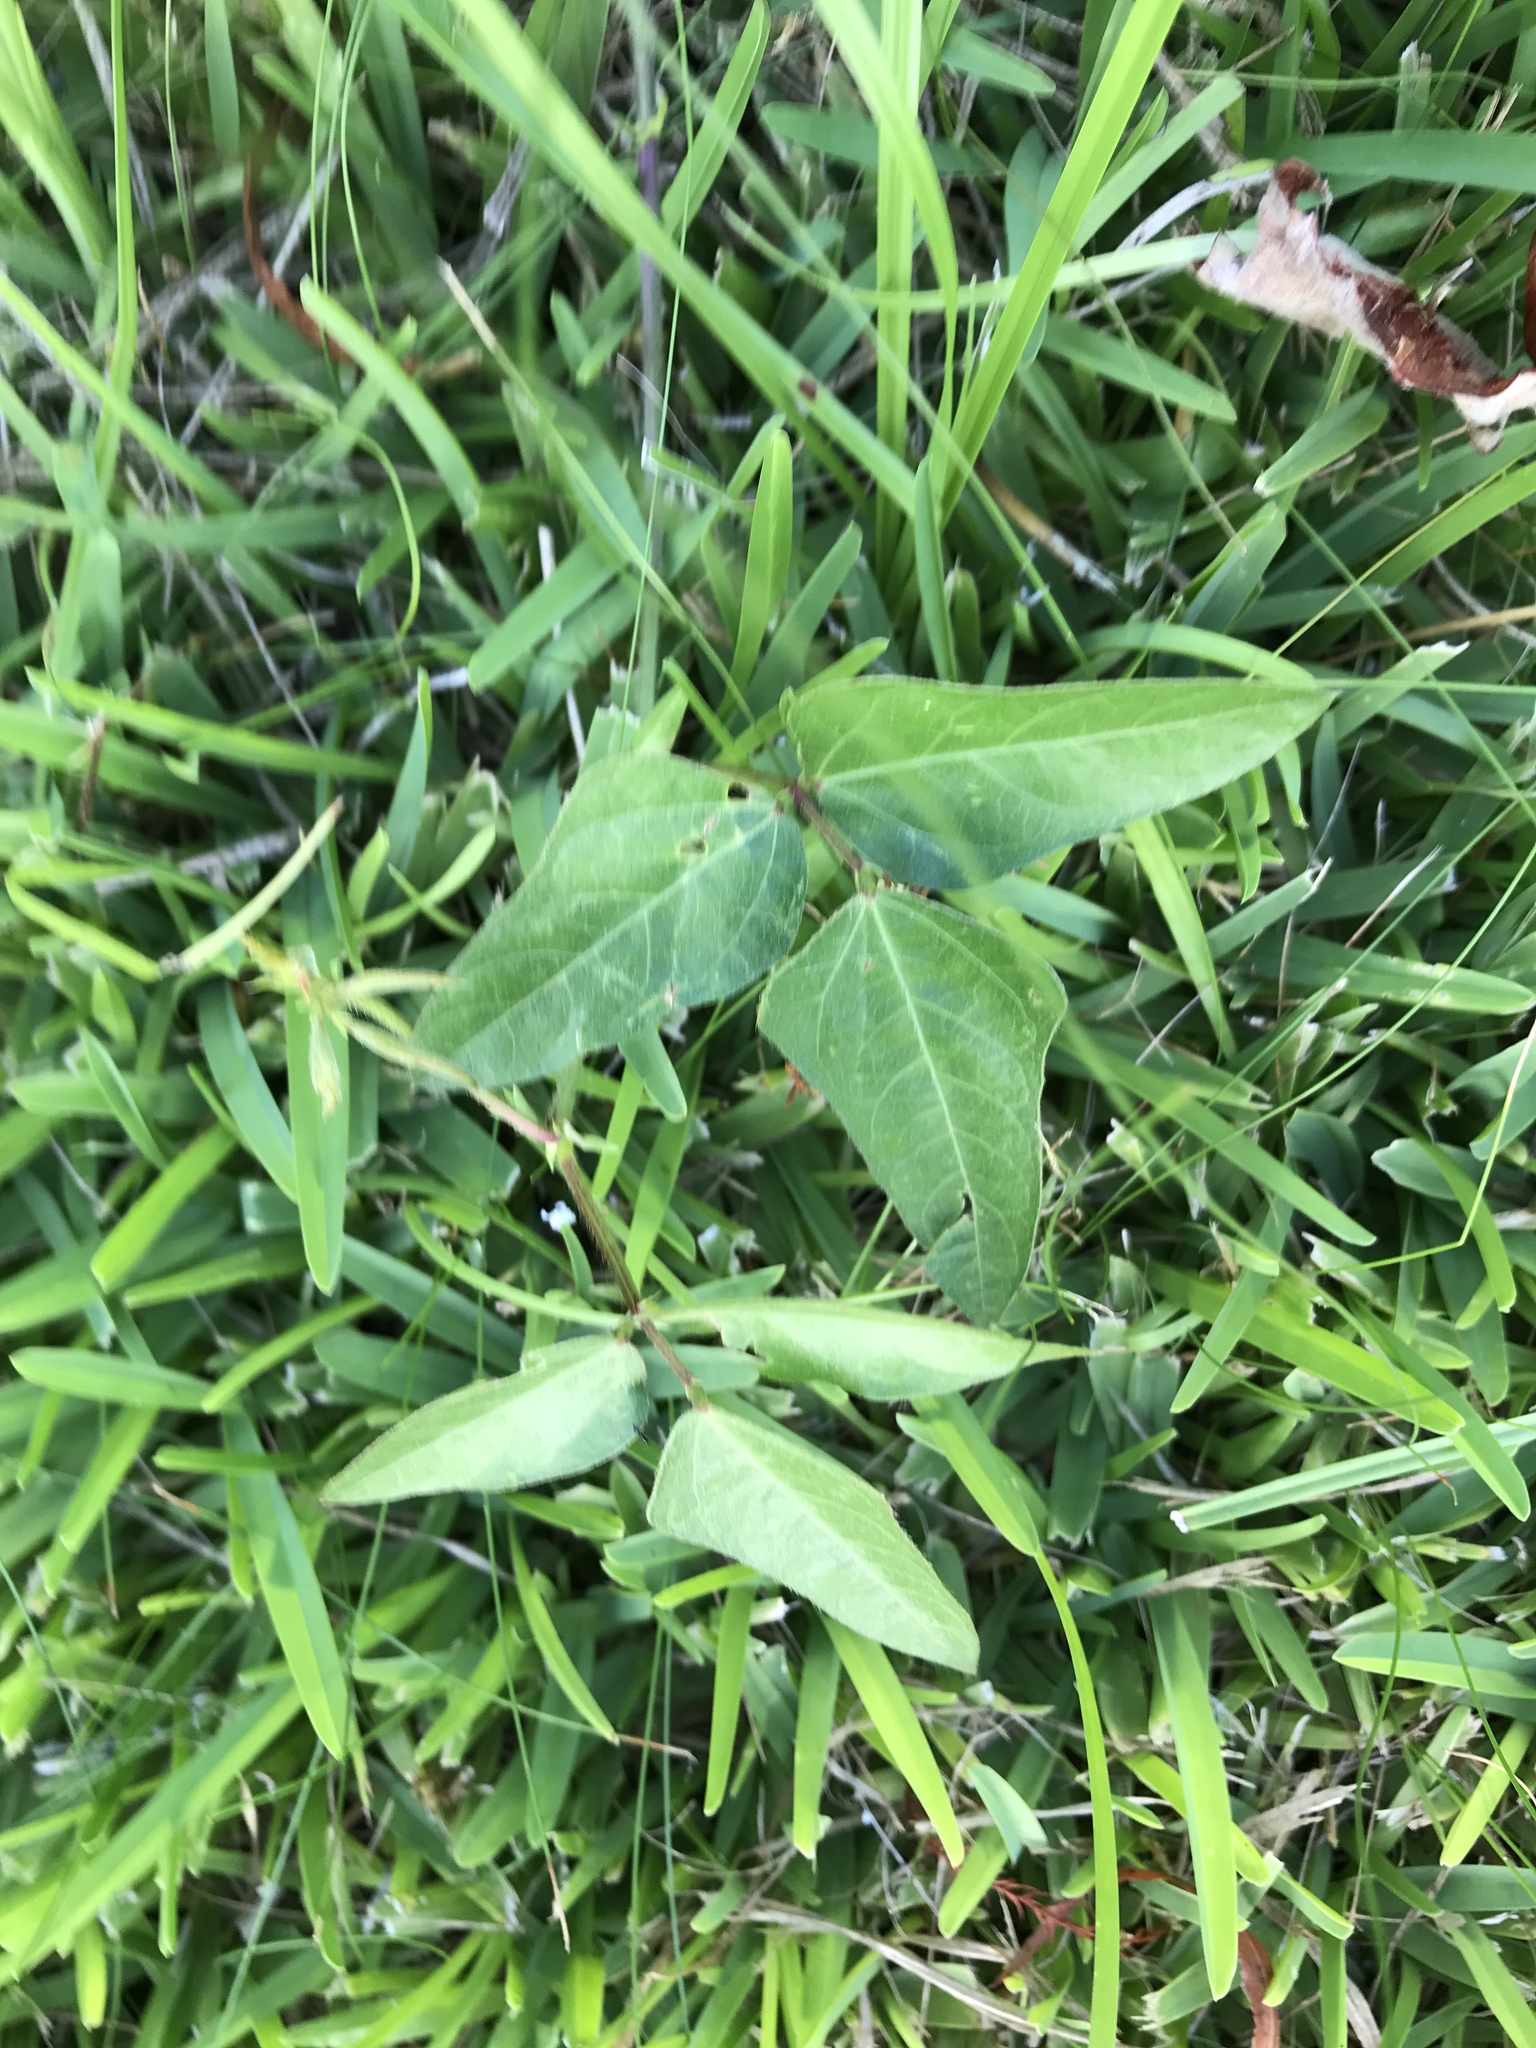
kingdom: Plantae
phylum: Tracheophyta
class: Magnoliopsida
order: Fabales
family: Fabaceae
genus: Strophostyles
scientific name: Strophostyles helvola
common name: Trailing wild bean
